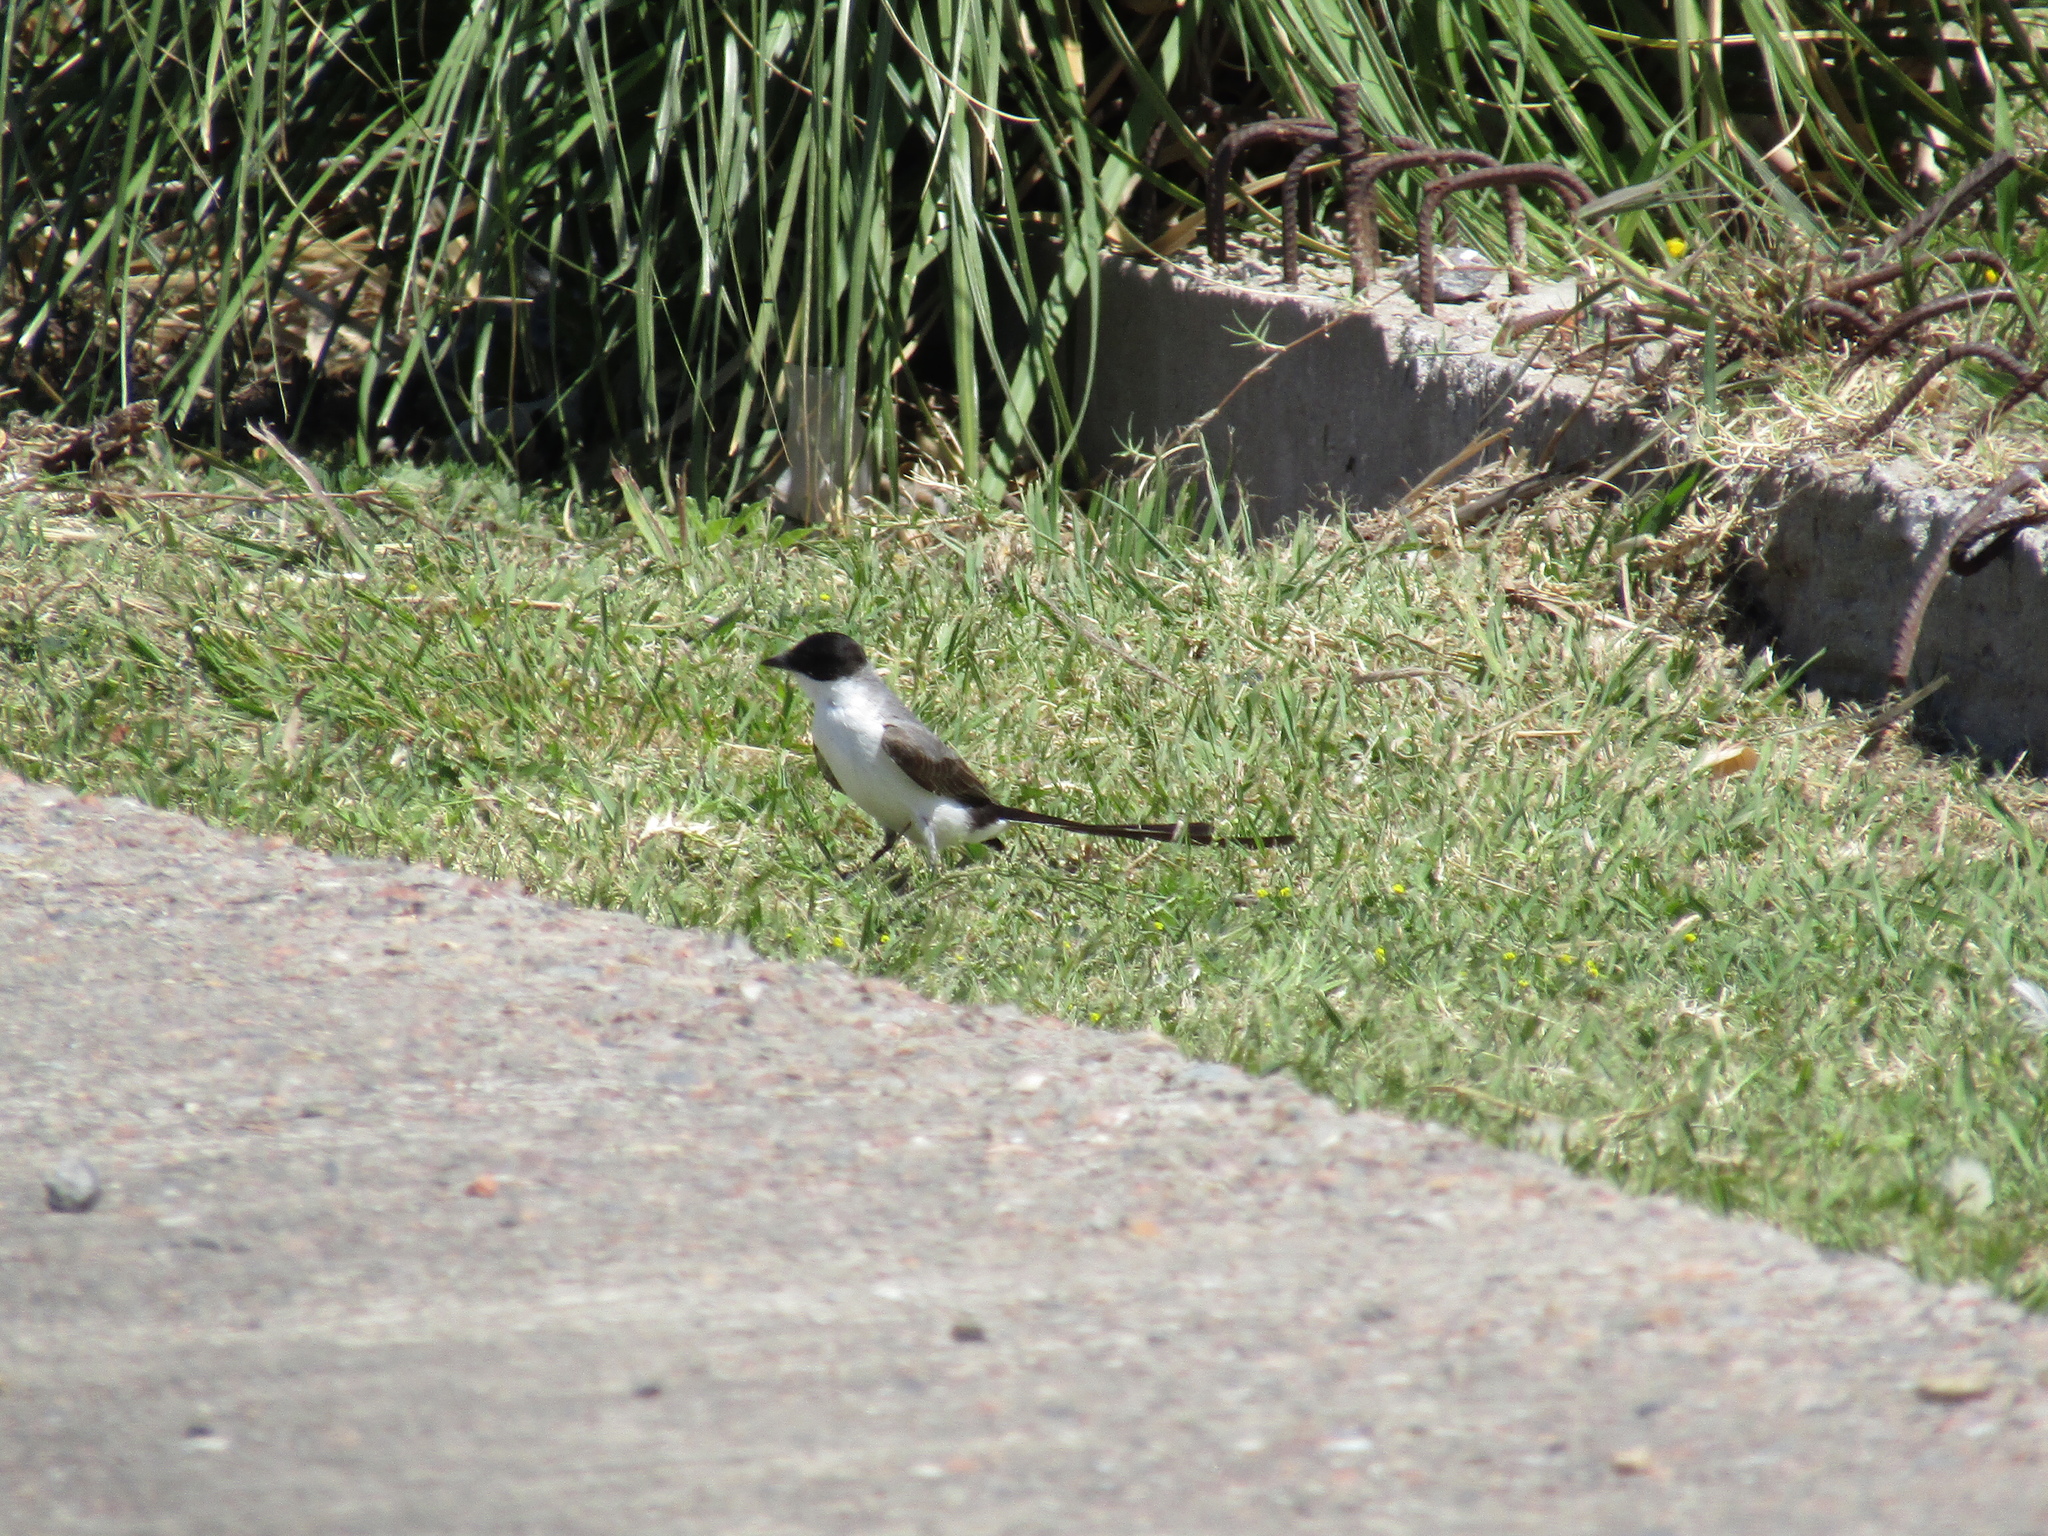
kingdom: Animalia
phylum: Chordata
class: Aves
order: Passeriformes
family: Tyrannidae
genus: Tyrannus
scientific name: Tyrannus savana
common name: Fork-tailed flycatcher
